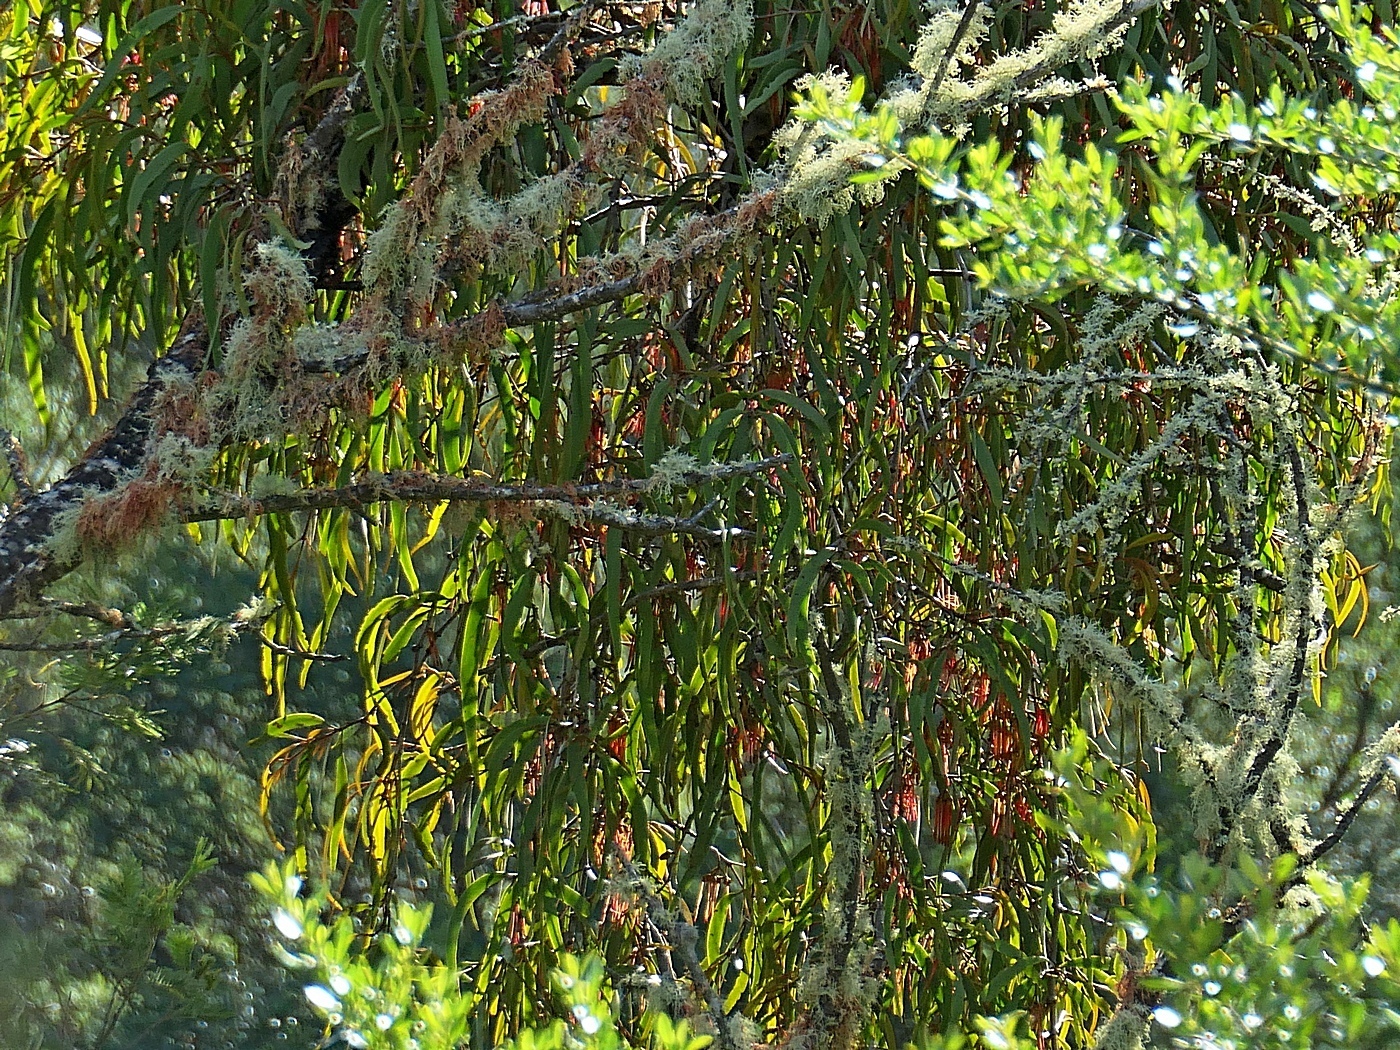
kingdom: Plantae
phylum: Tracheophyta
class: Magnoliopsida
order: Santalales
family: Loranthaceae
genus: Amyema
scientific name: Amyema pendula
